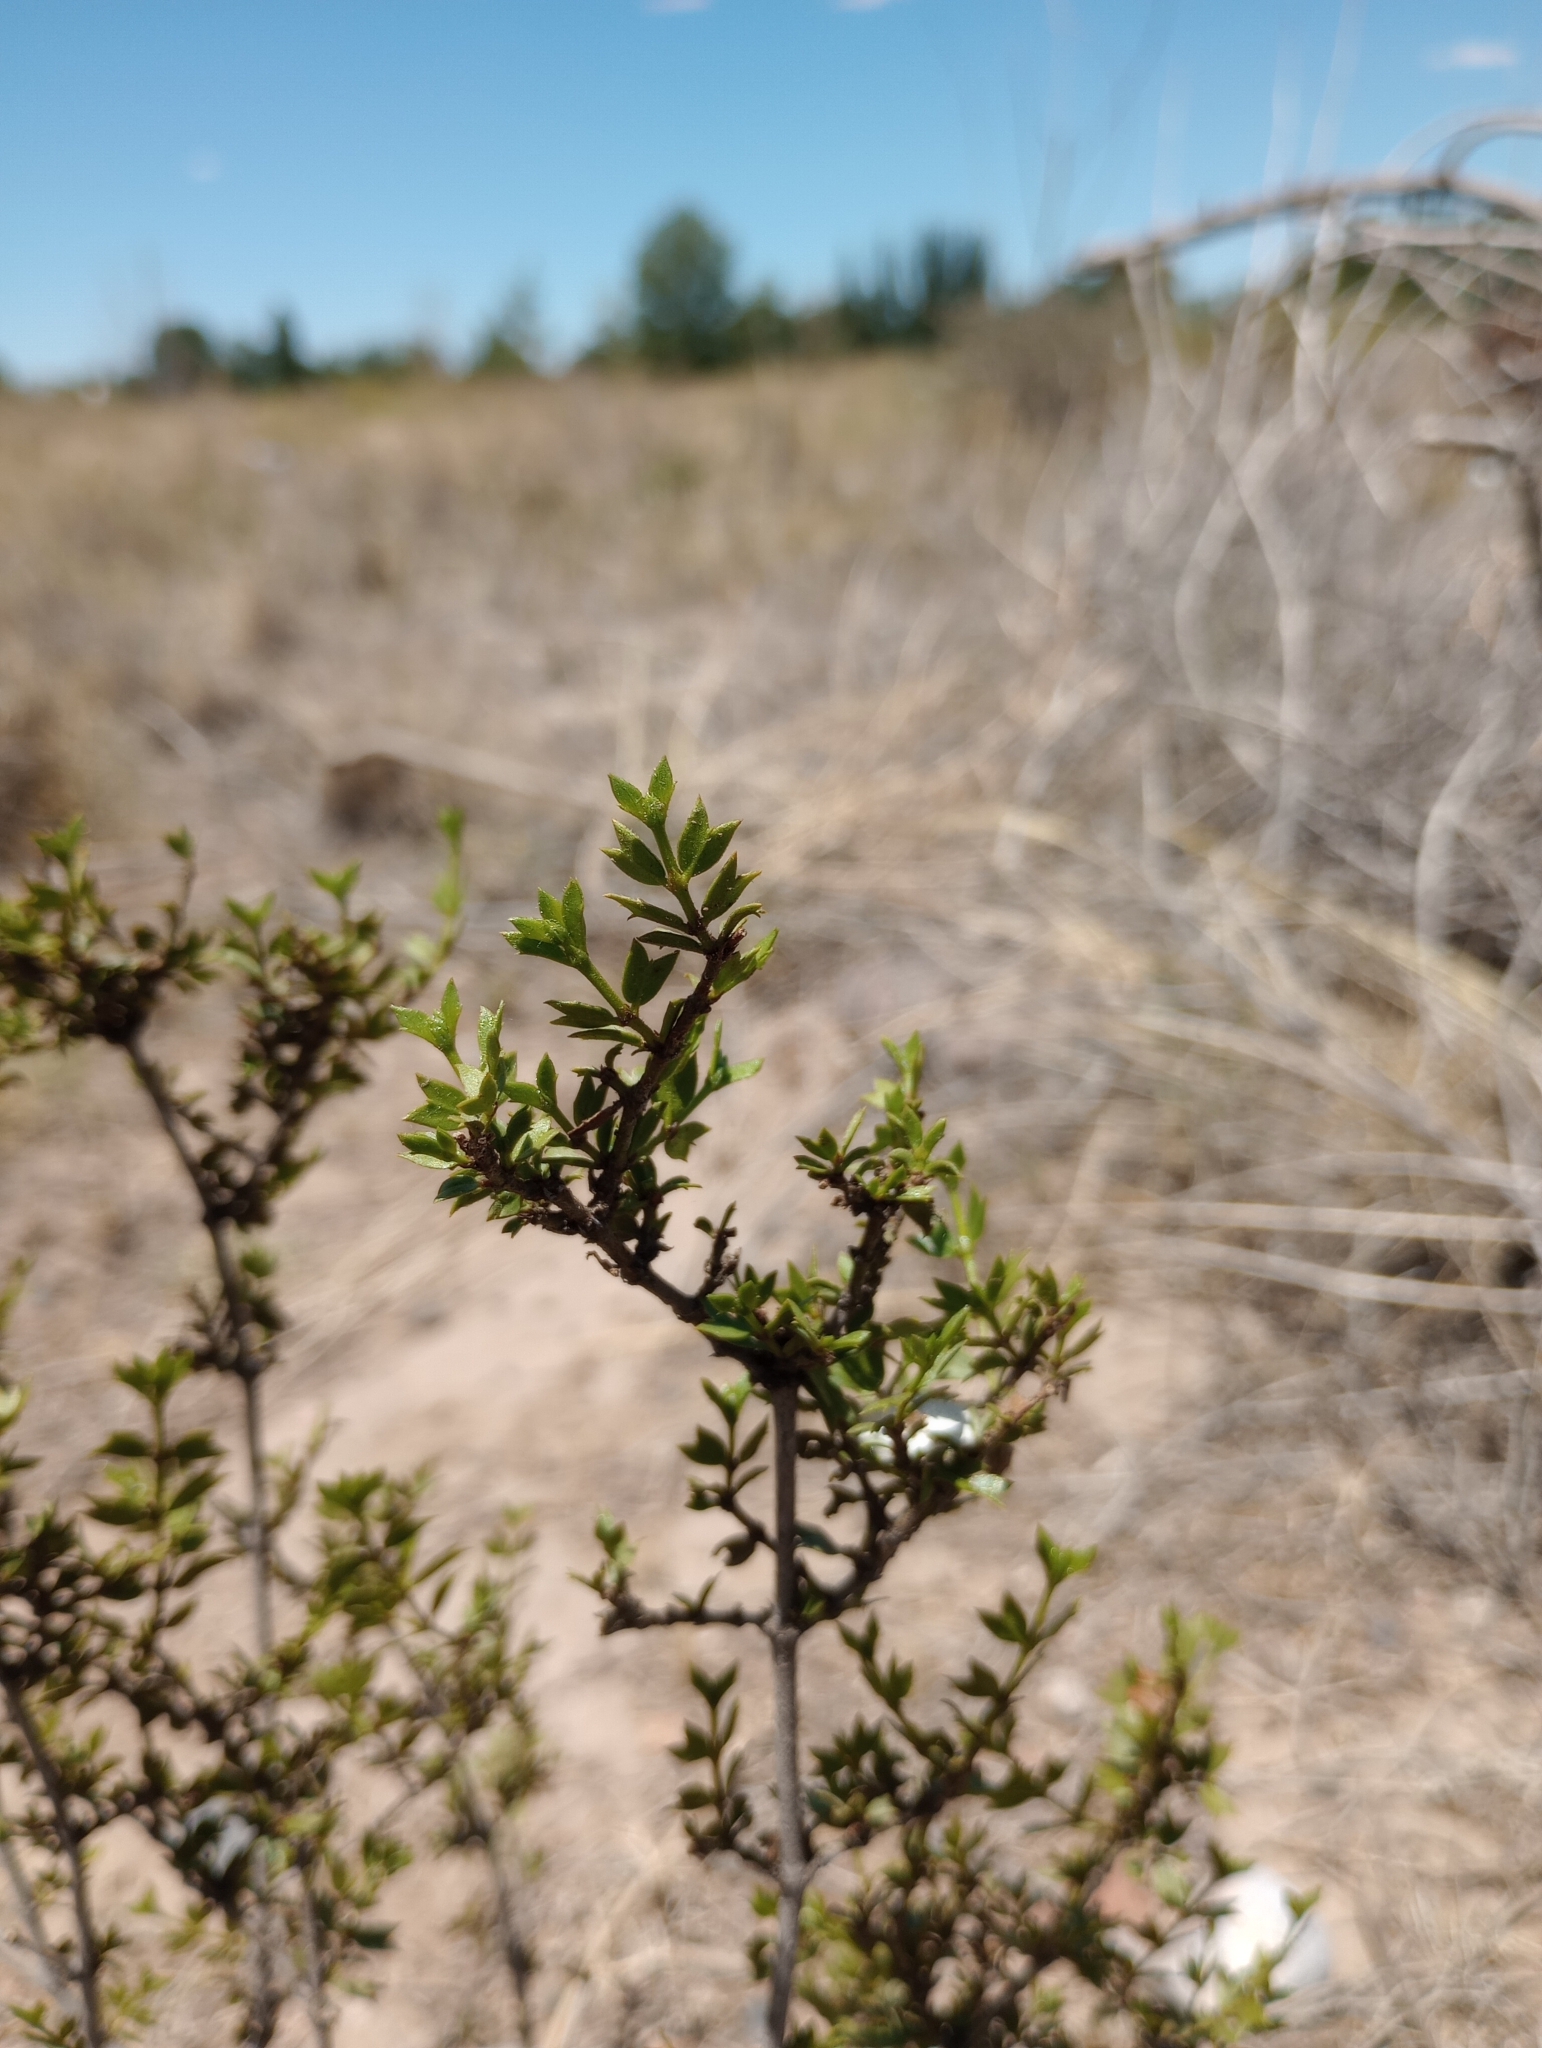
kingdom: Plantae
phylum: Tracheophyta
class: Magnoliopsida
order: Zygophyllales
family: Zygophyllaceae
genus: Larrea
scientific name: Larrea cuneifolia
